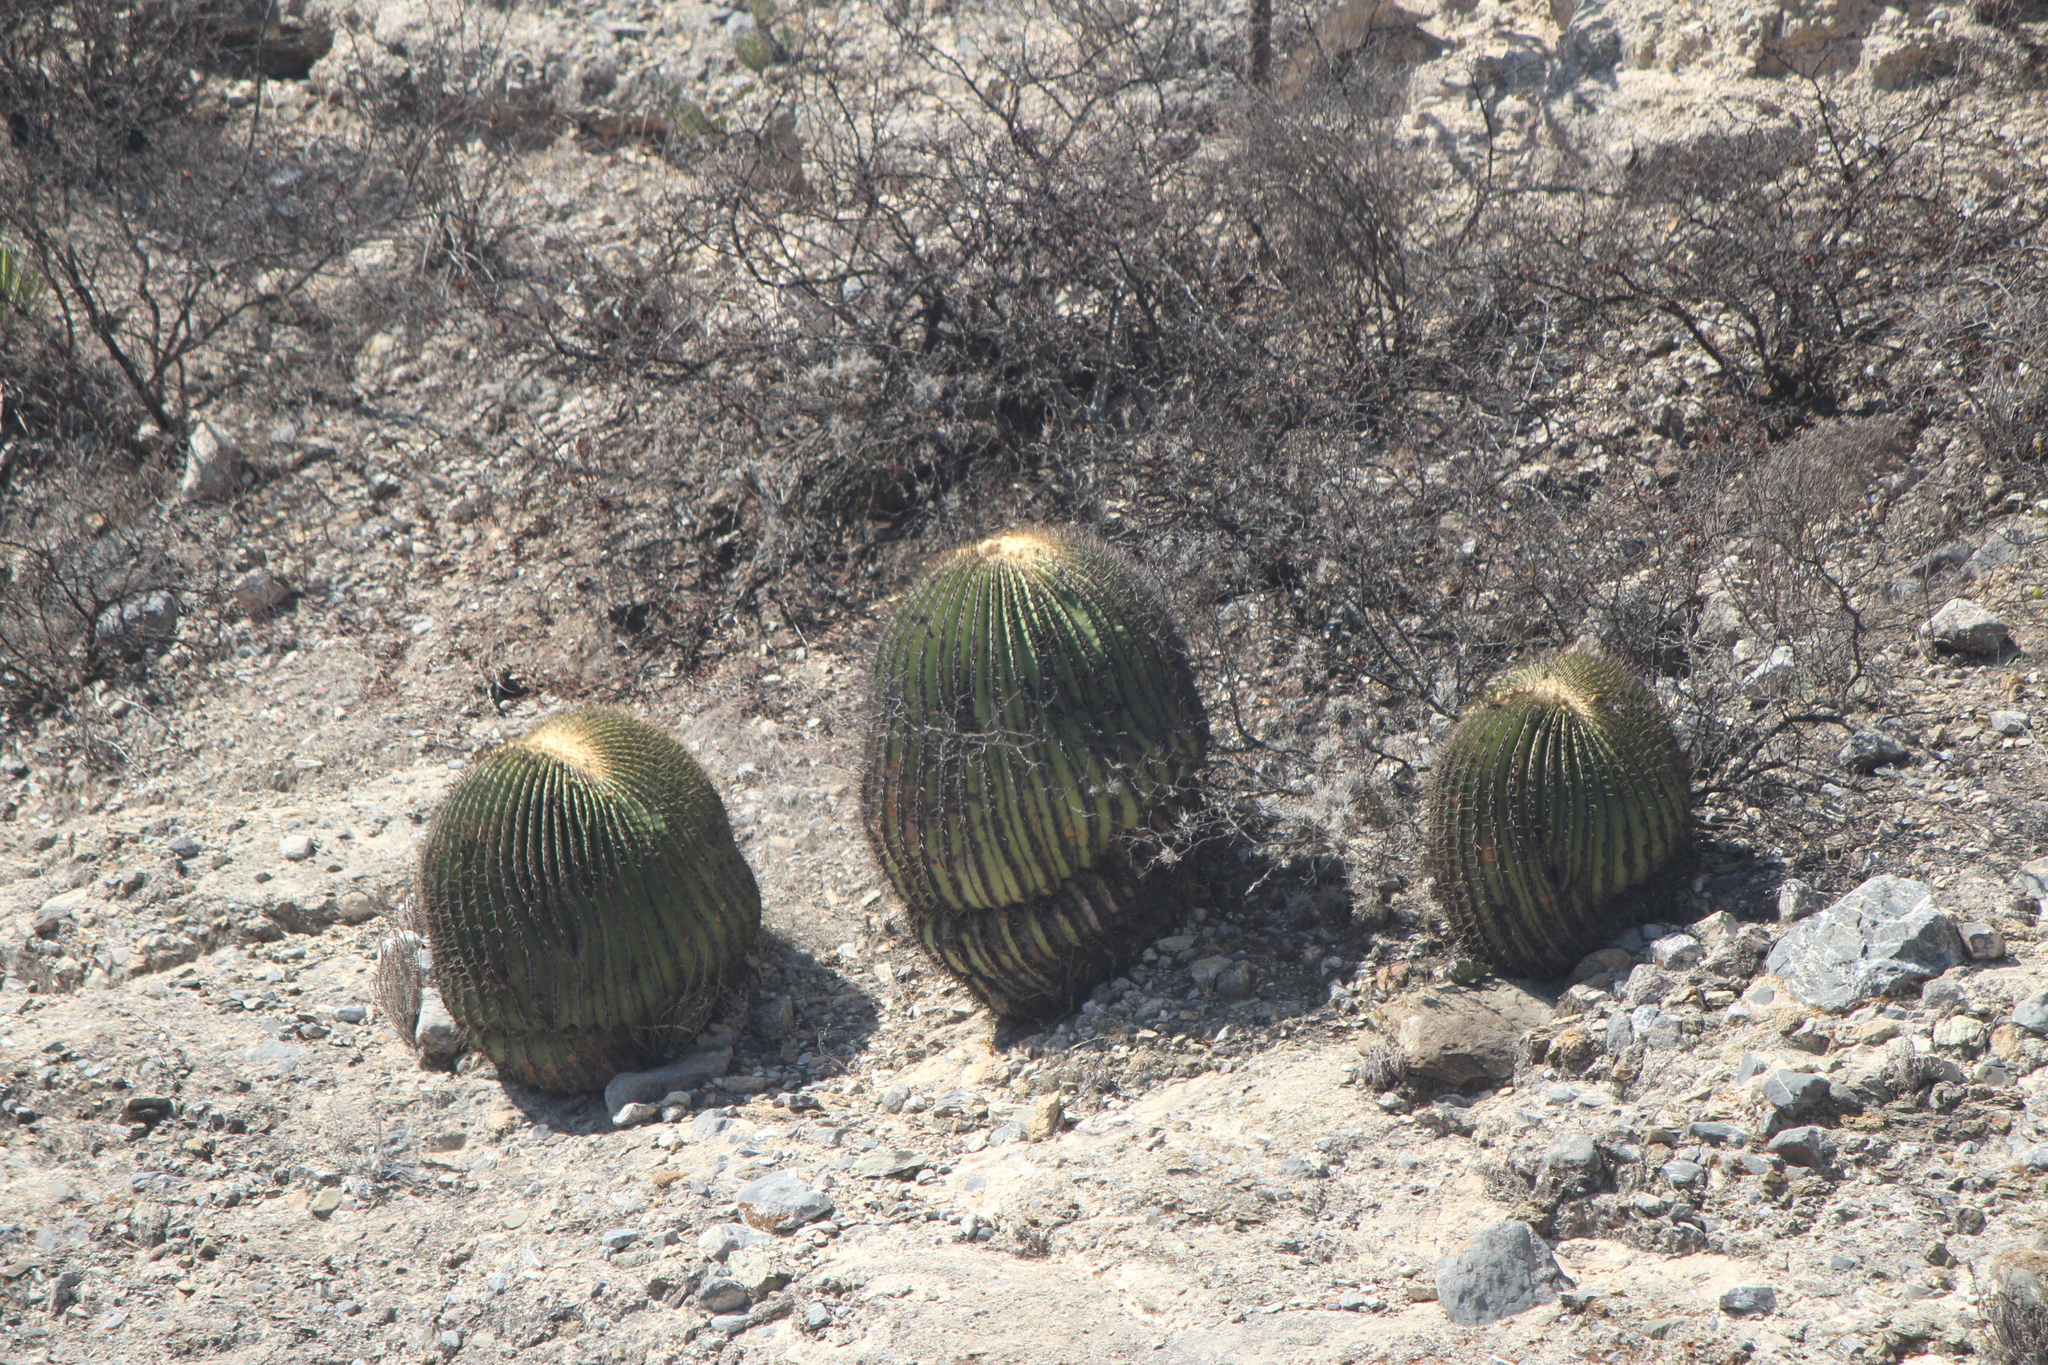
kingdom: Plantae
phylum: Tracheophyta
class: Magnoliopsida
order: Caryophyllales
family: Cactaceae
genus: Echinocactus
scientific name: Echinocactus platyacanthus
